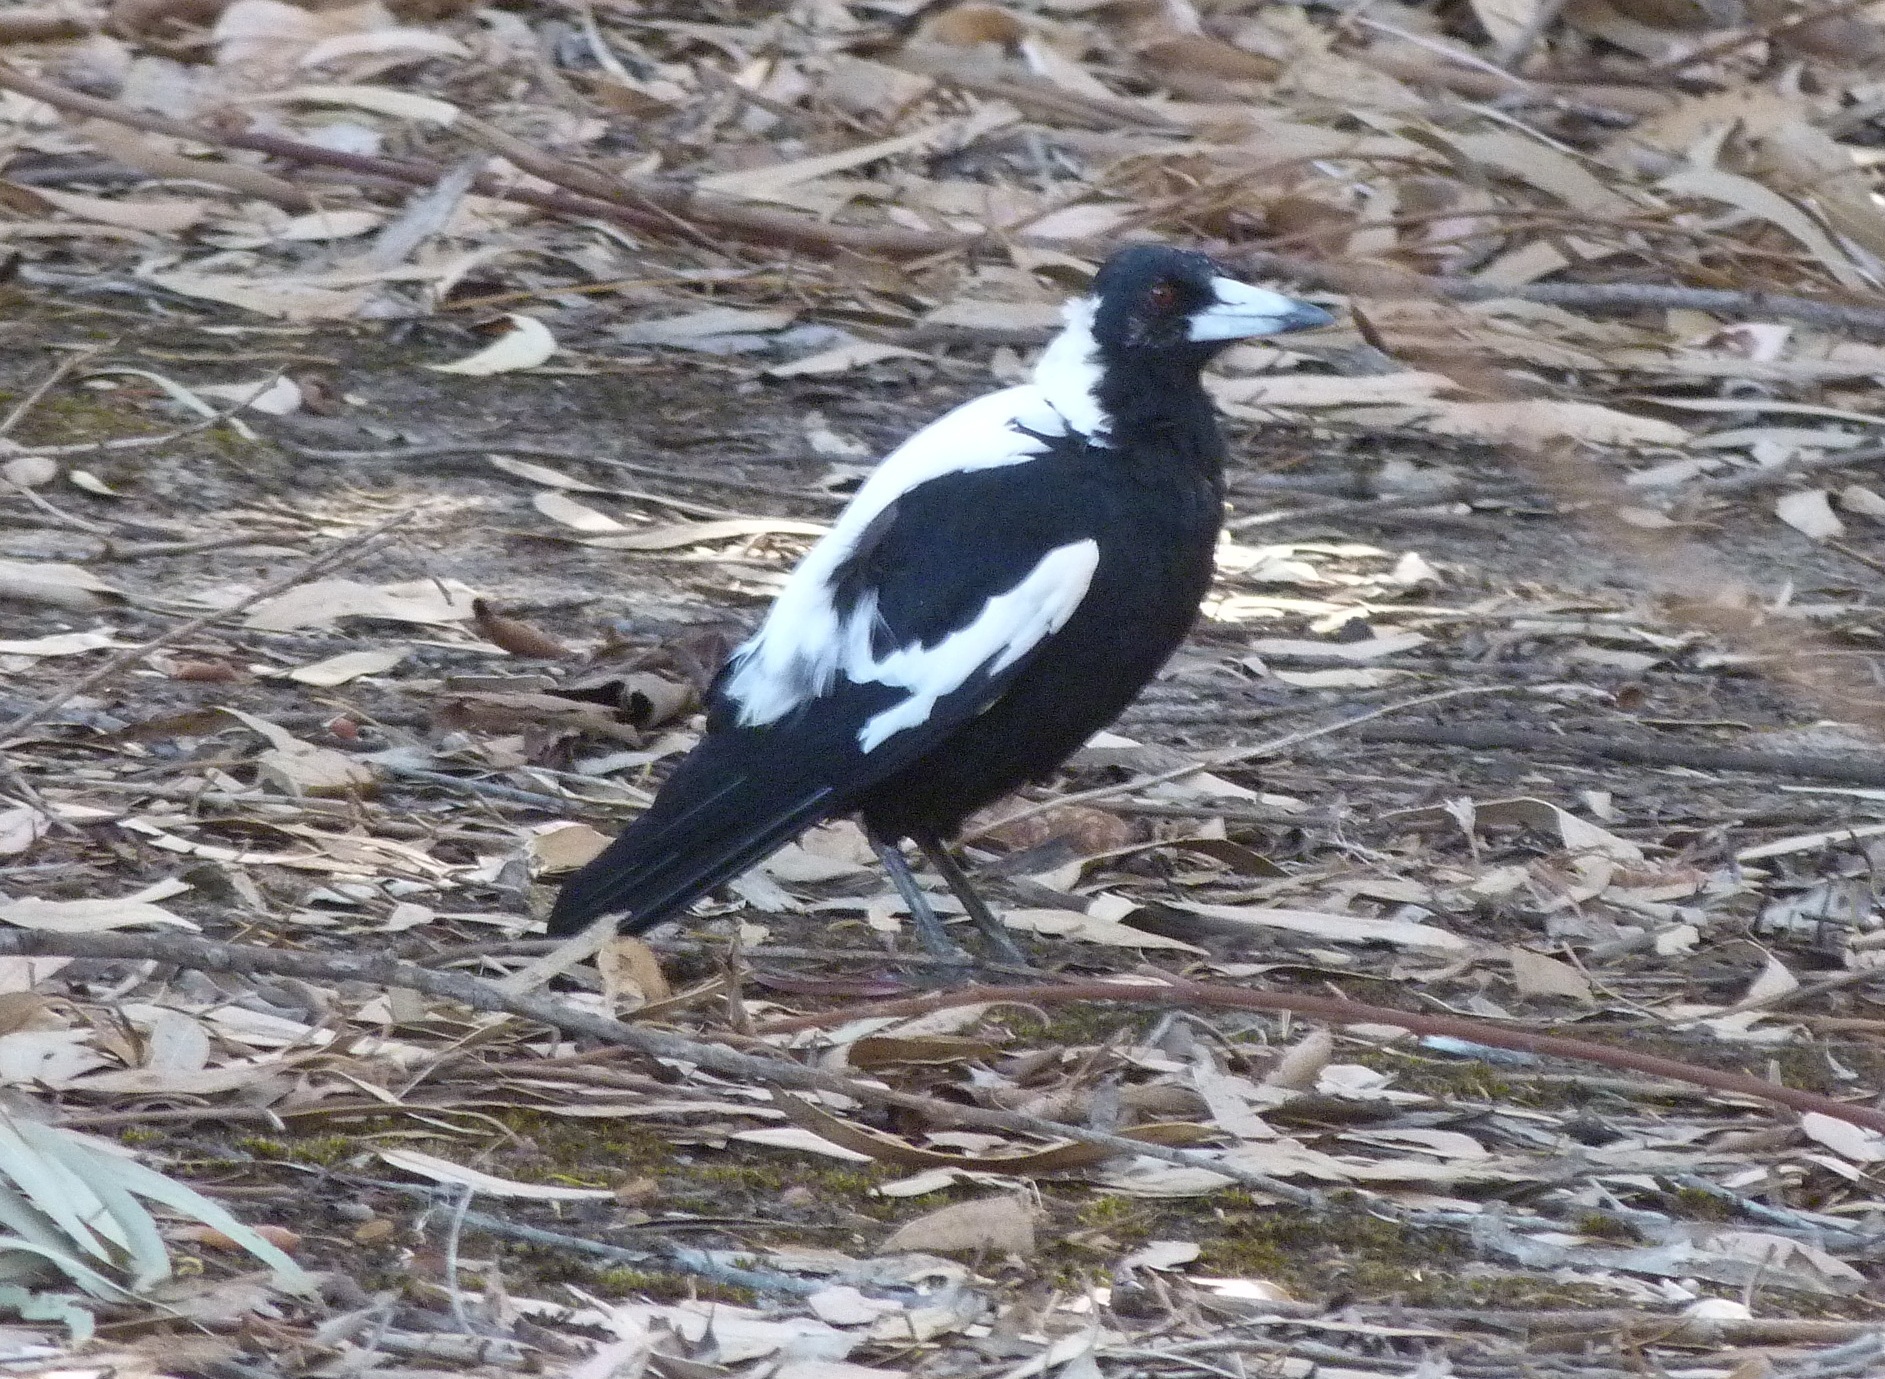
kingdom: Animalia
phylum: Chordata
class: Aves
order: Passeriformes
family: Cracticidae
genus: Gymnorhina
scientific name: Gymnorhina tibicen
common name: Australian magpie
